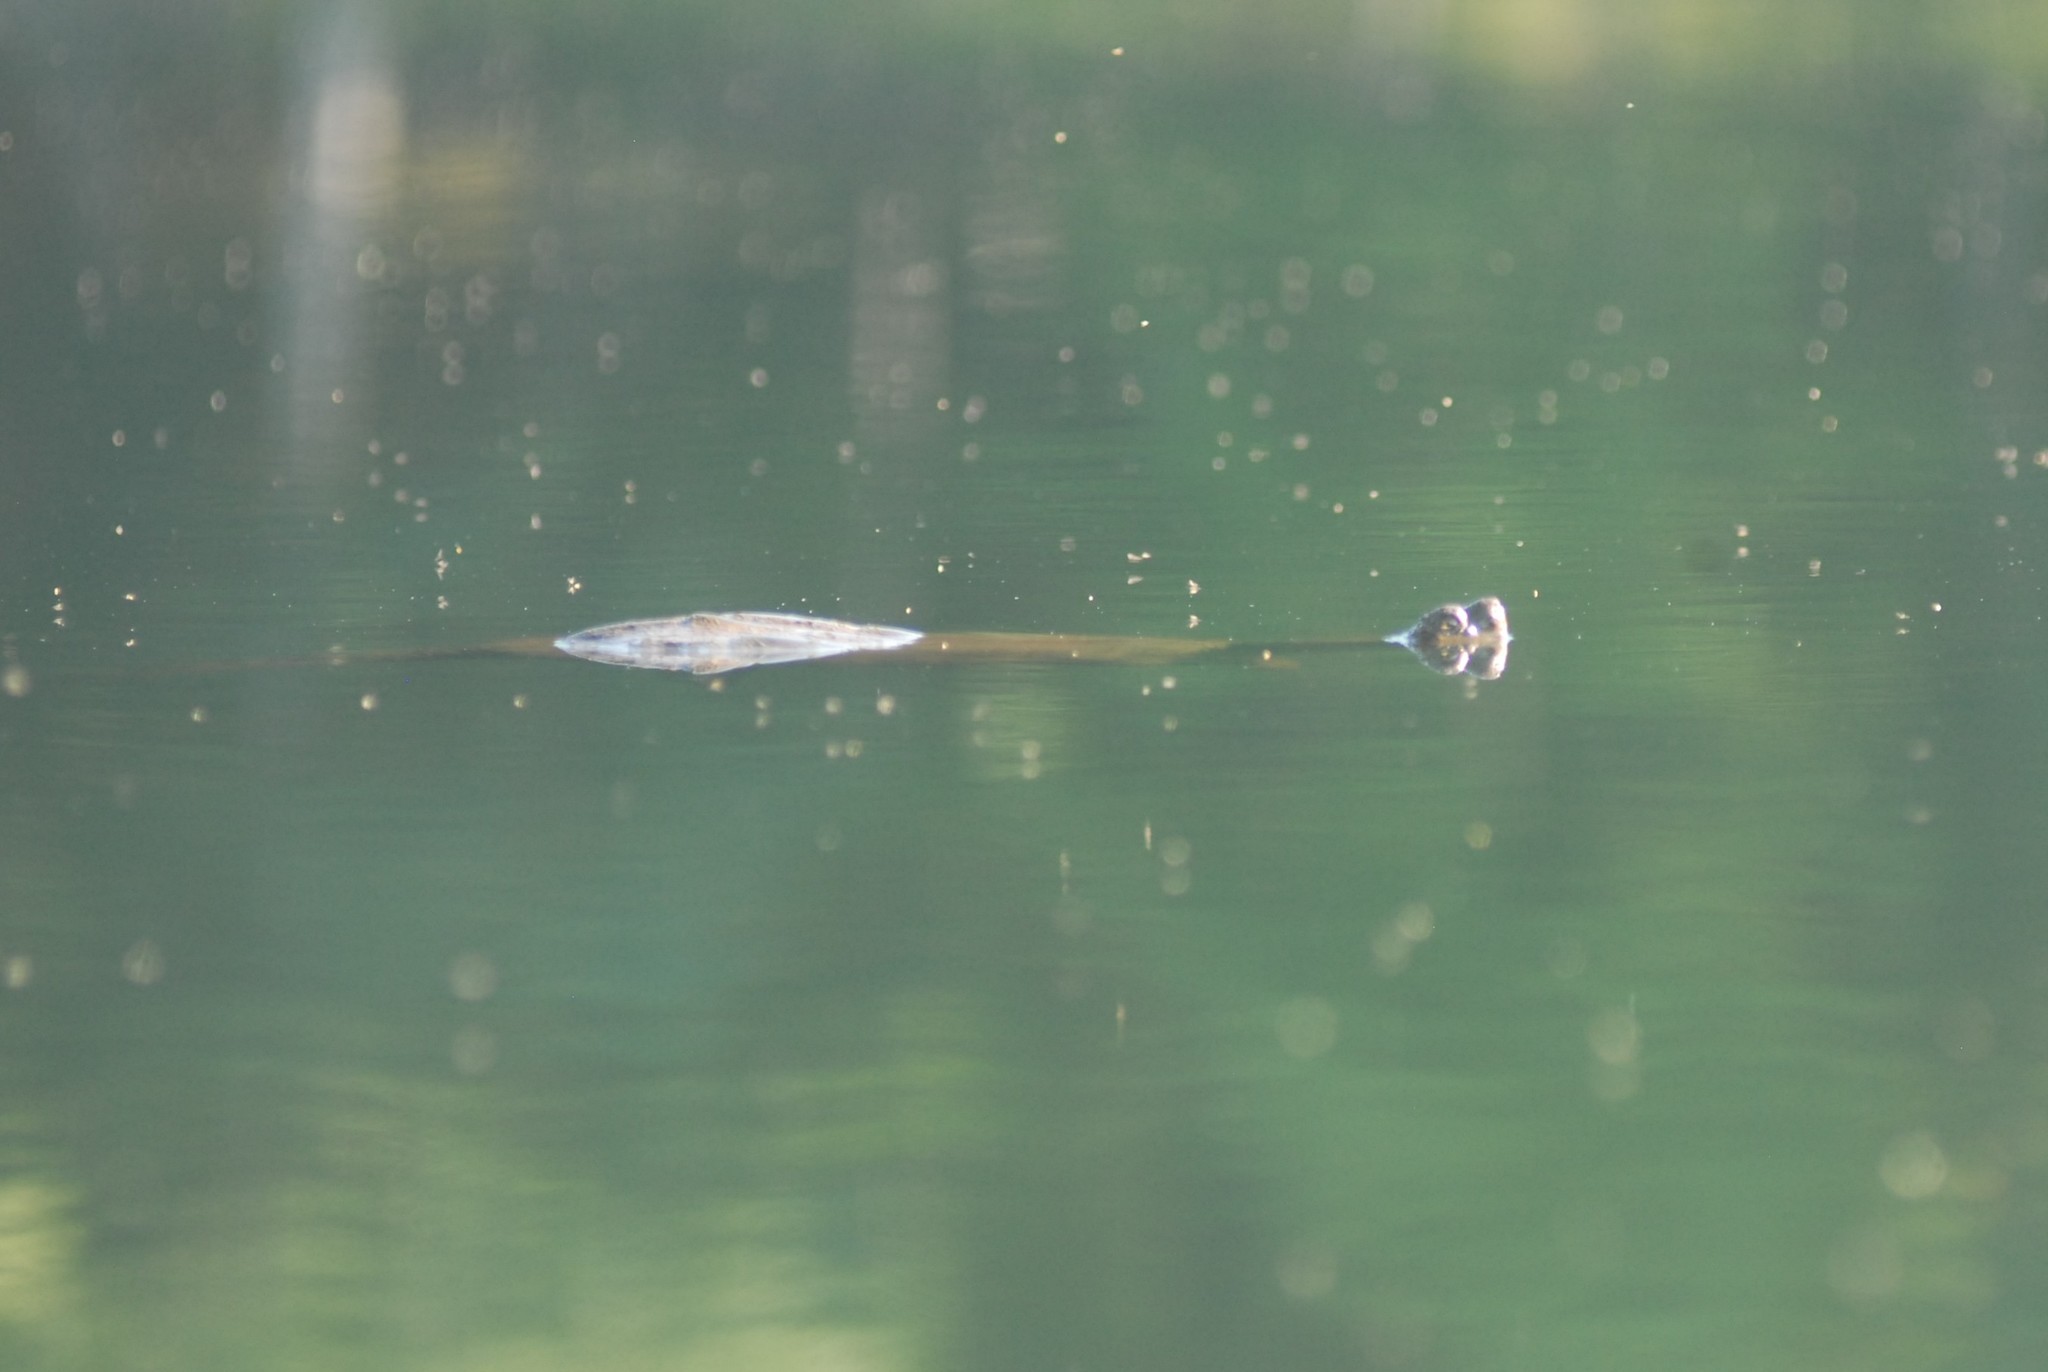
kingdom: Animalia
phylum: Chordata
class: Testudines
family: Chelydridae
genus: Chelydra
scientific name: Chelydra serpentina
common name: Common snapping turtle
